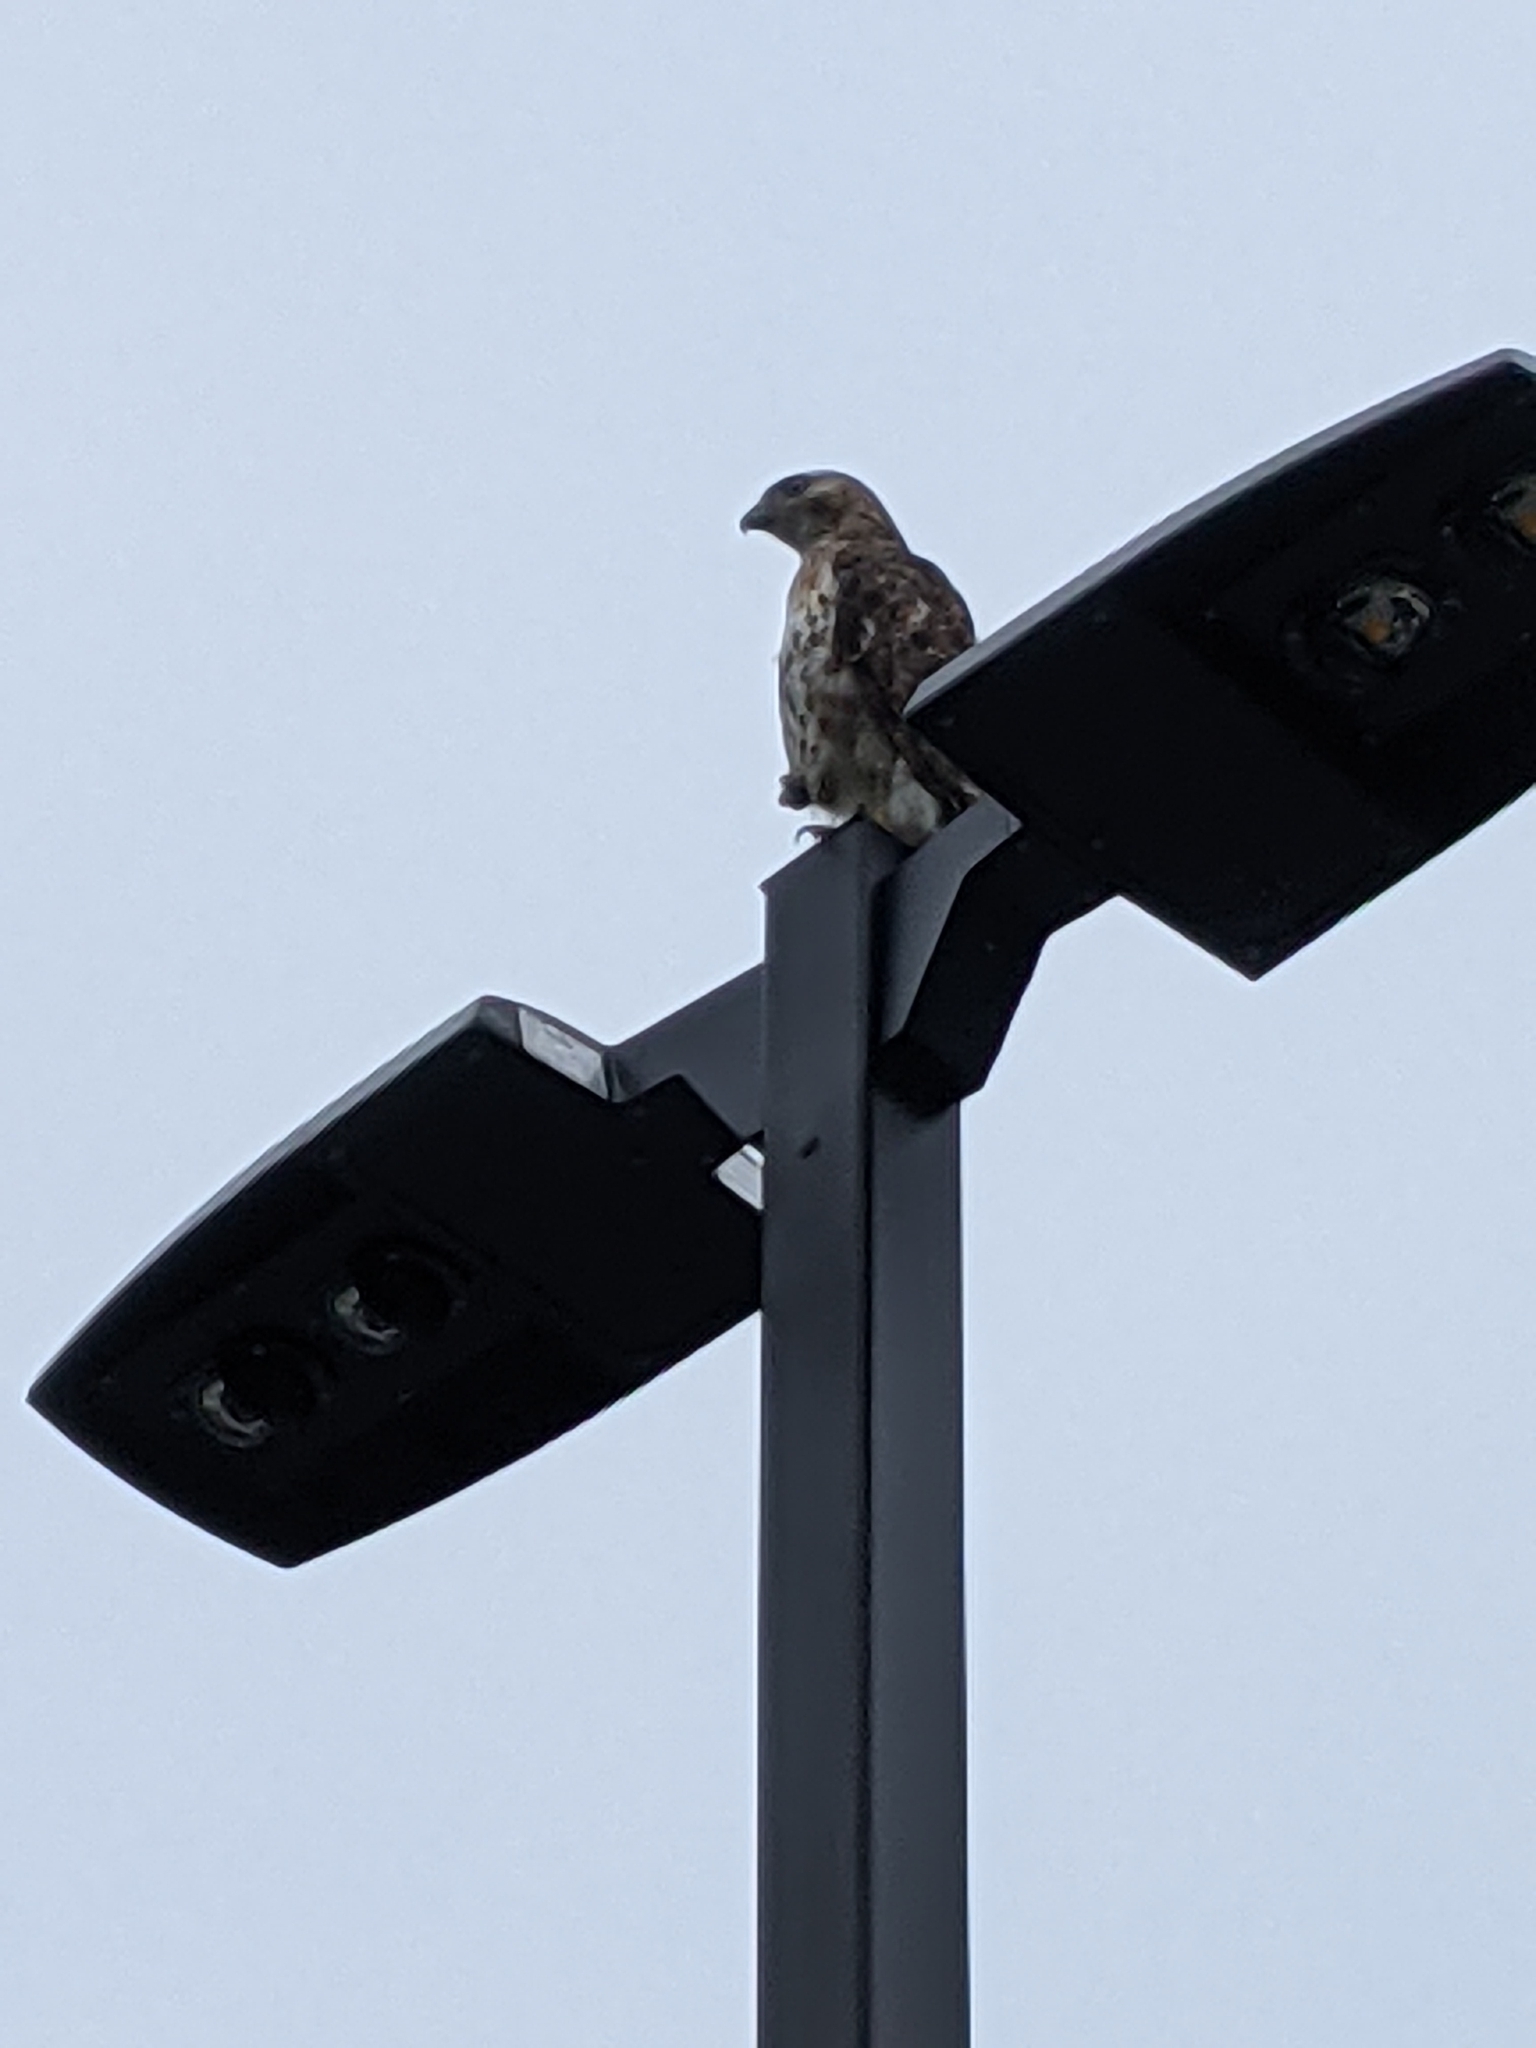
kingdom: Animalia
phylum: Chordata
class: Aves
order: Accipitriformes
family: Accipitridae
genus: Buteo
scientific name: Buteo jamaicensis
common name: Red-tailed hawk
